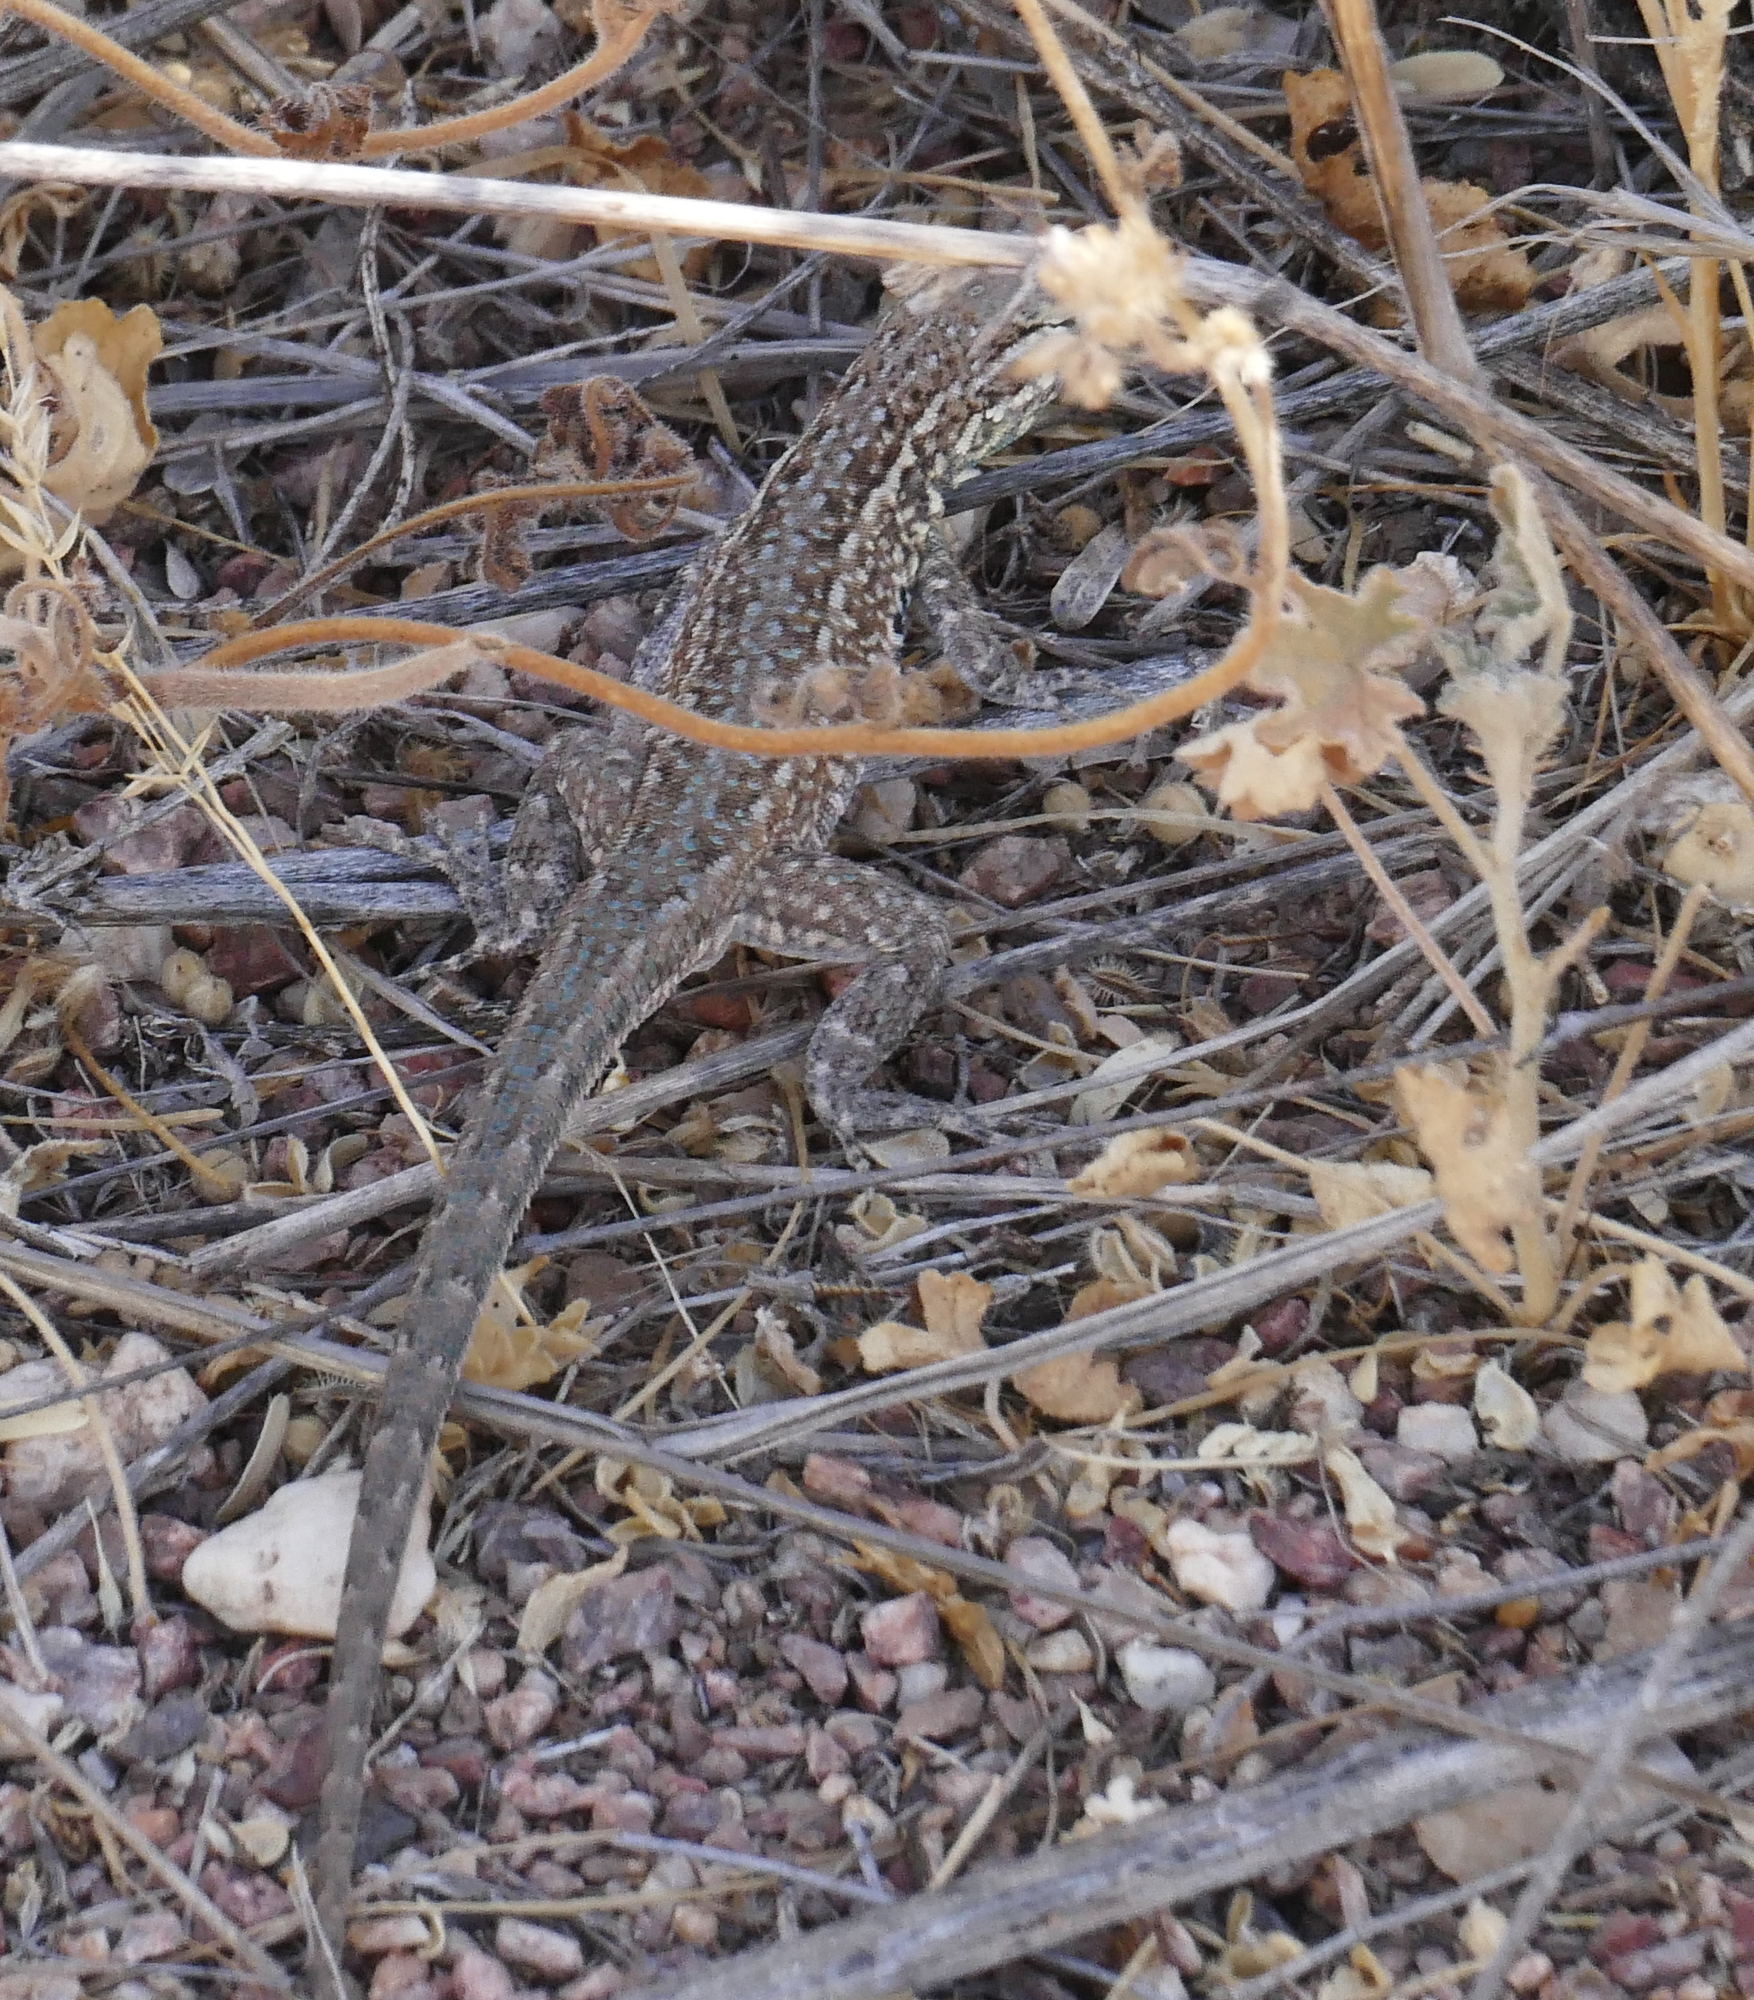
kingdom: Animalia
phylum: Chordata
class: Squamata
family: Phrynosomatidae
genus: Uta
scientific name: Uta stansburiana
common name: Side-blotched lizard
